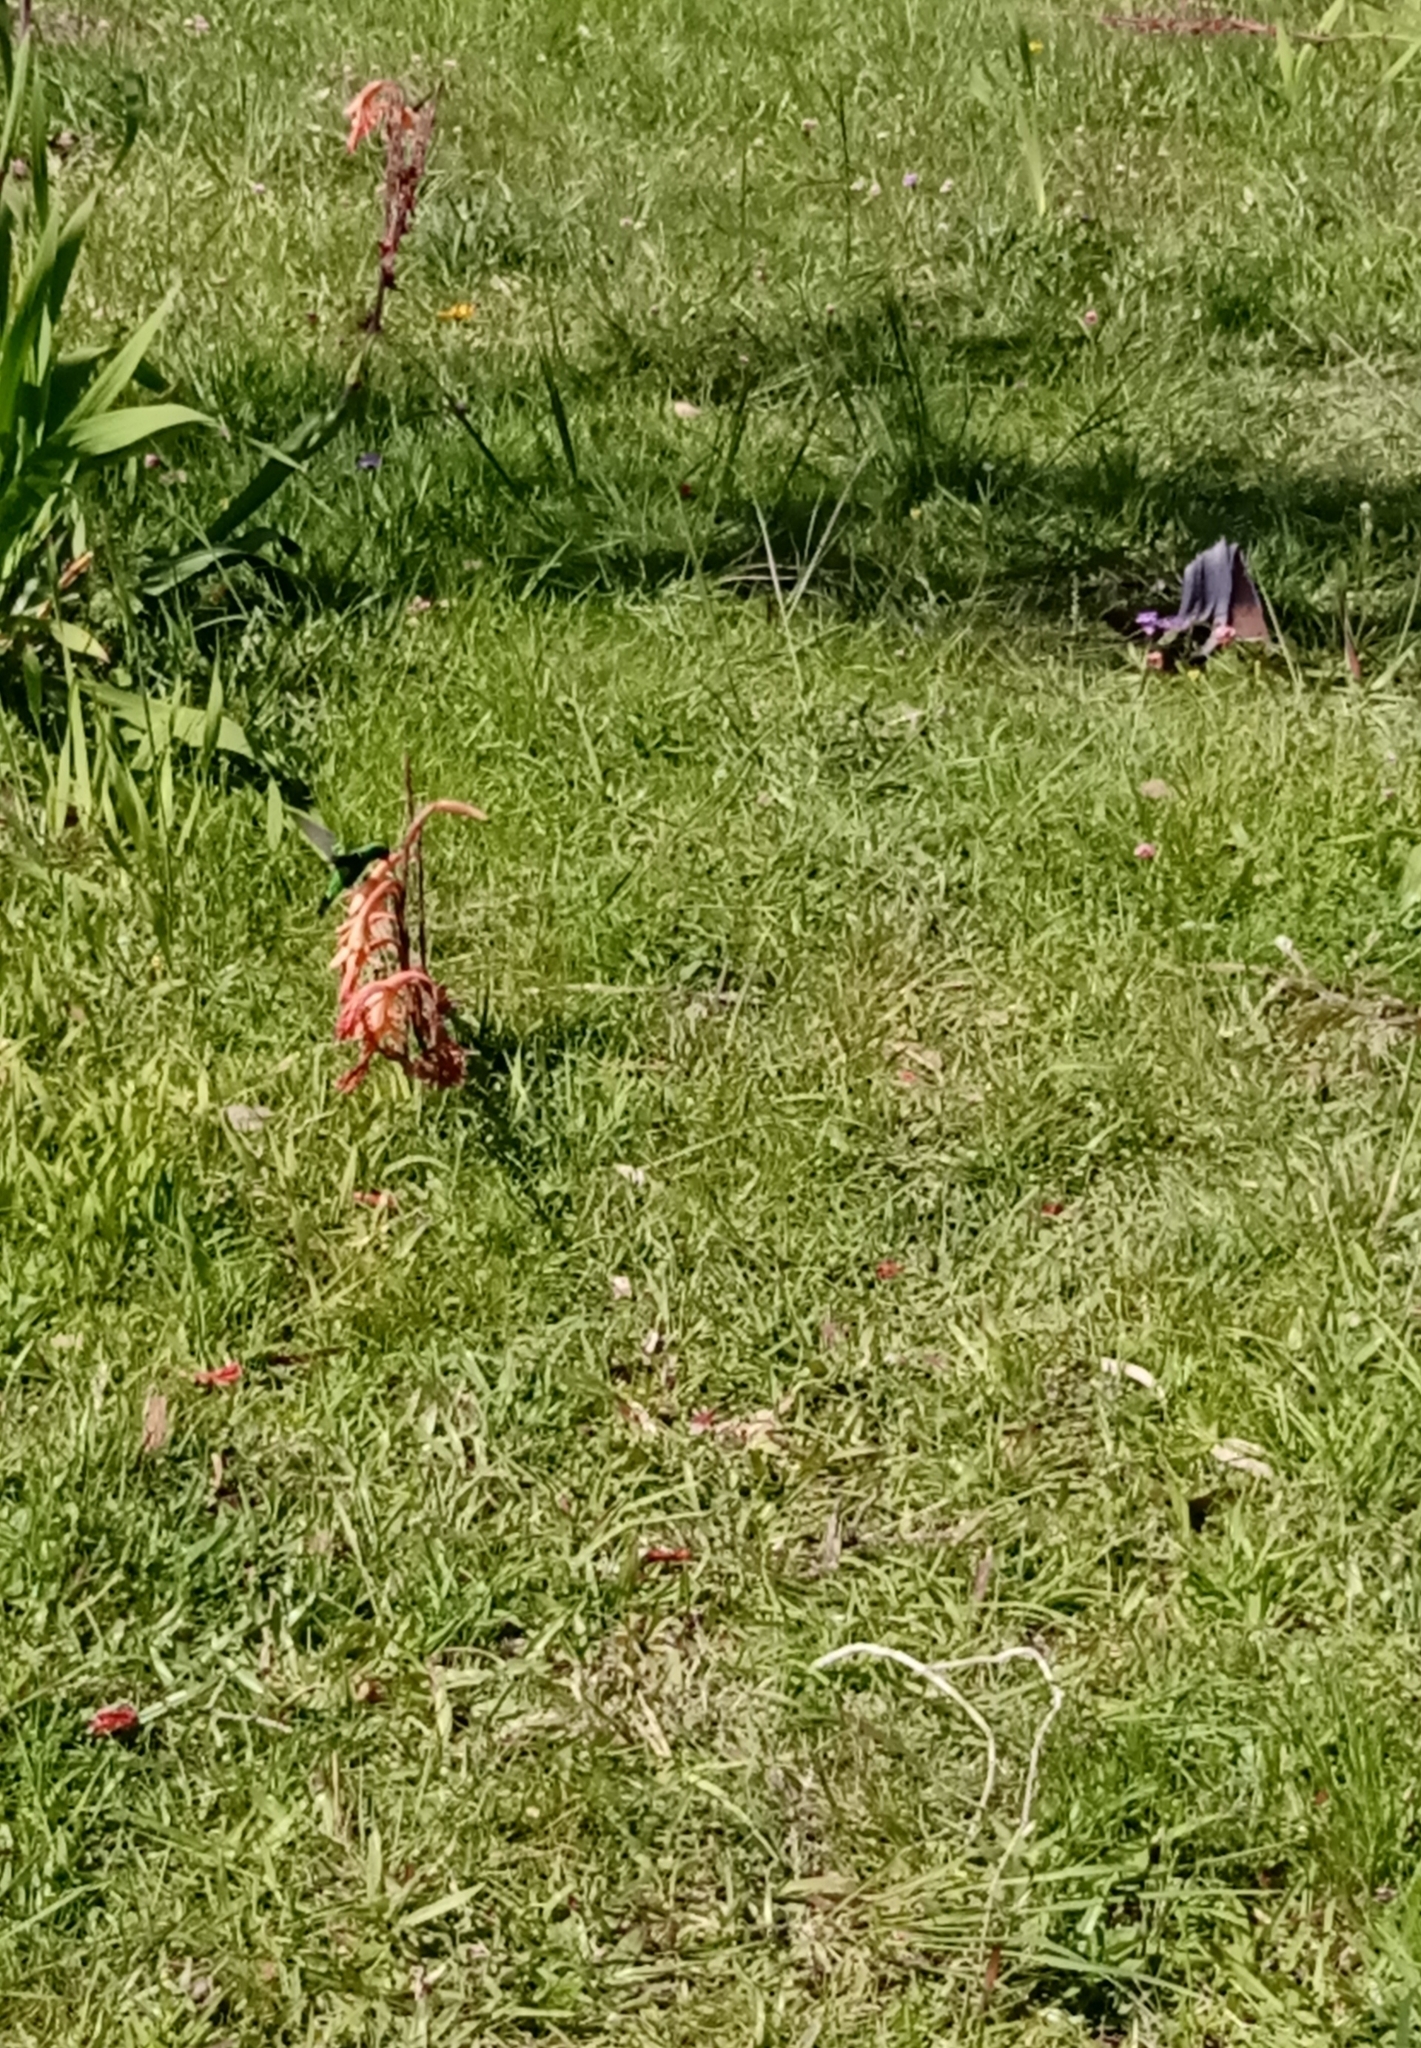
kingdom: Animalia
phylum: Chordata
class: Aves
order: Apodiformes
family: Trochilidae
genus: Chlorostilbon
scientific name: Chlorostilbon lucidus
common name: Glittering-bellied emerald
